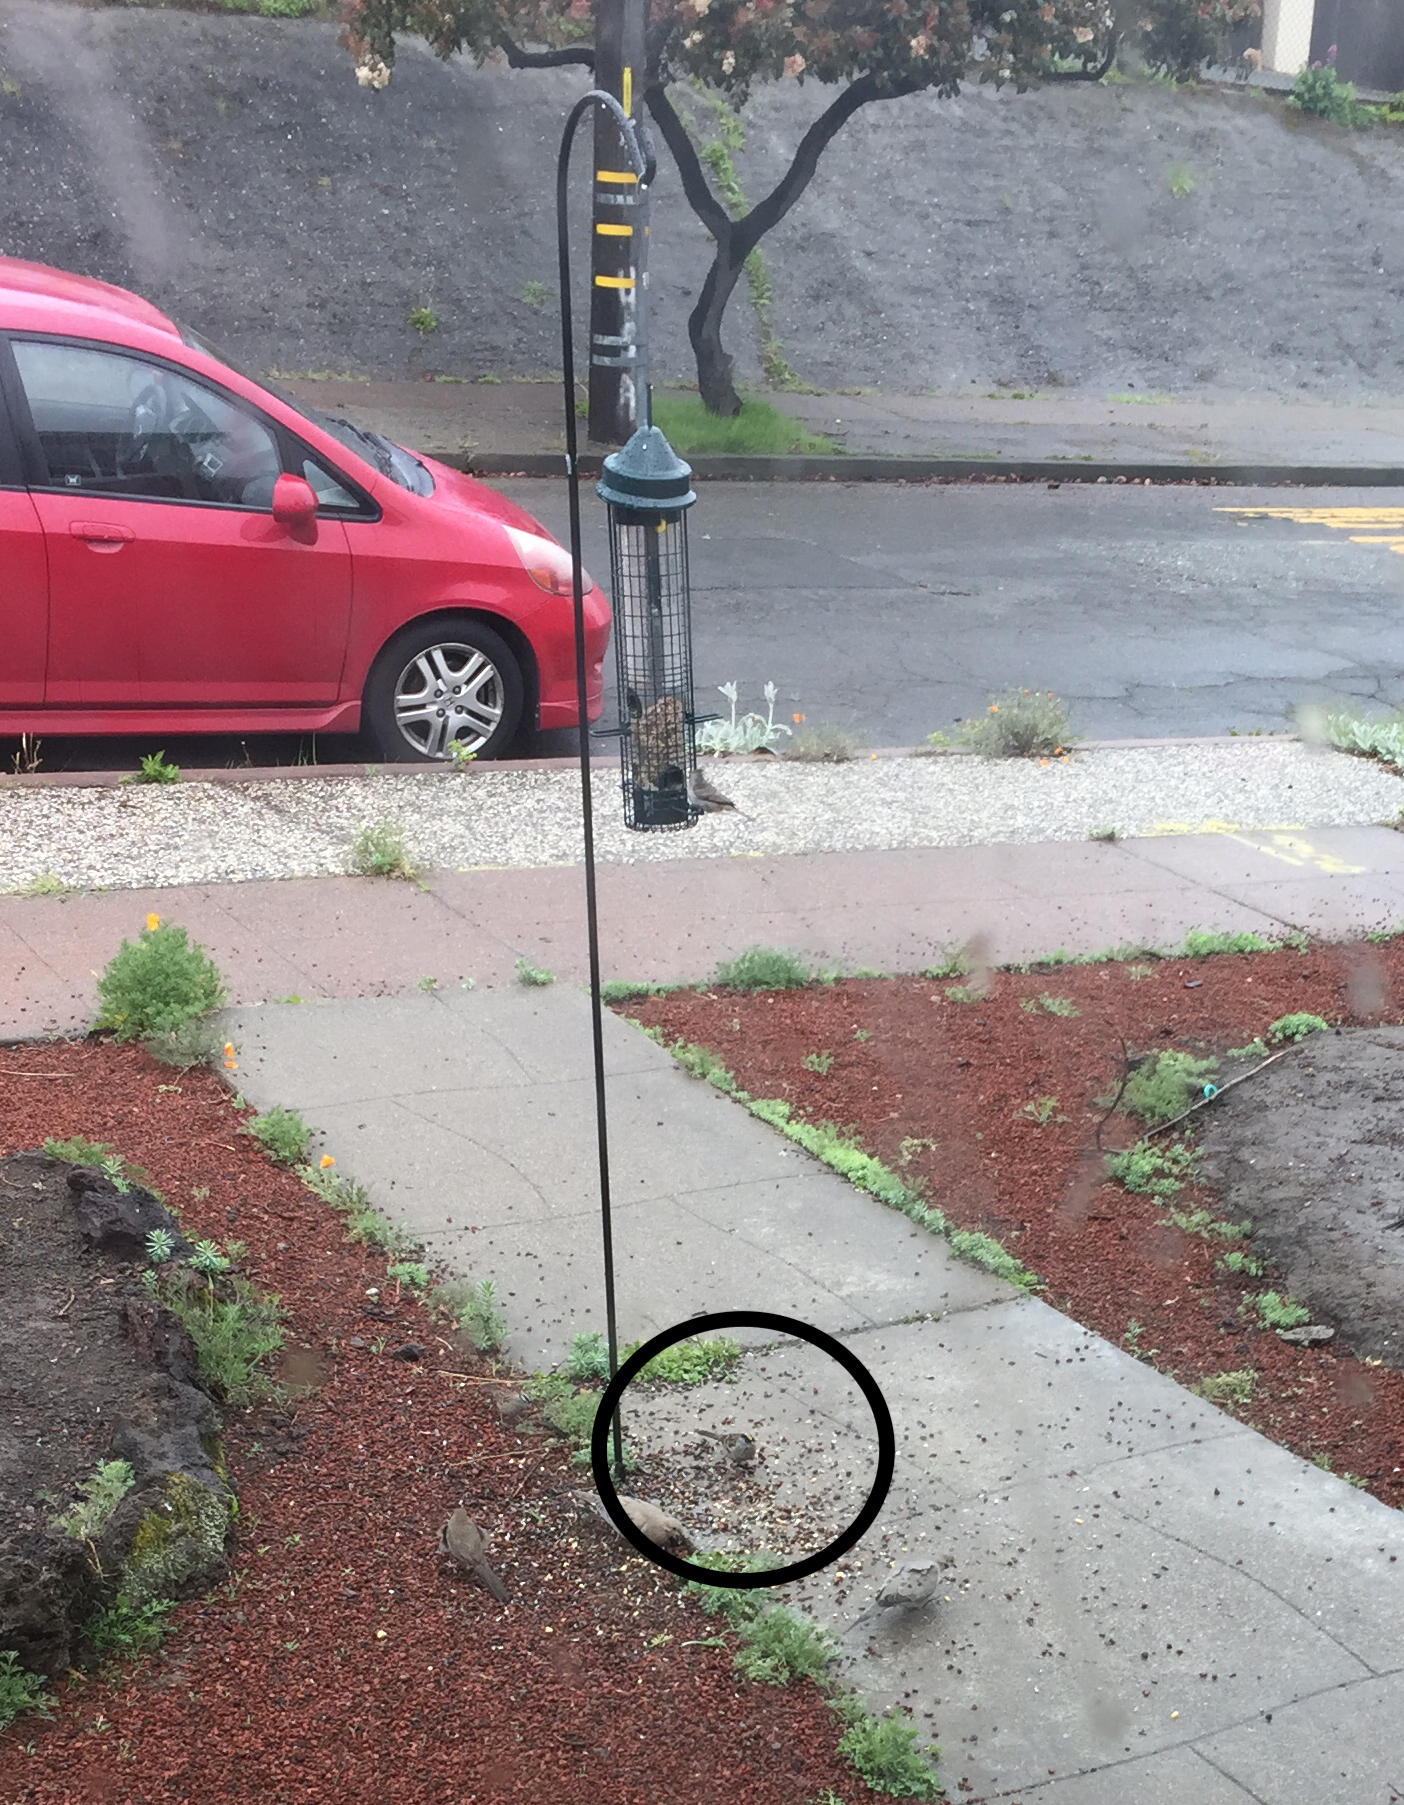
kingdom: Animalia
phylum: Chordata
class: Aves
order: Passeriformes
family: Passerellidae
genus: Zonotrichia
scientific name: Zonotrichia atricapilla
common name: Golden-crowned sparrow
